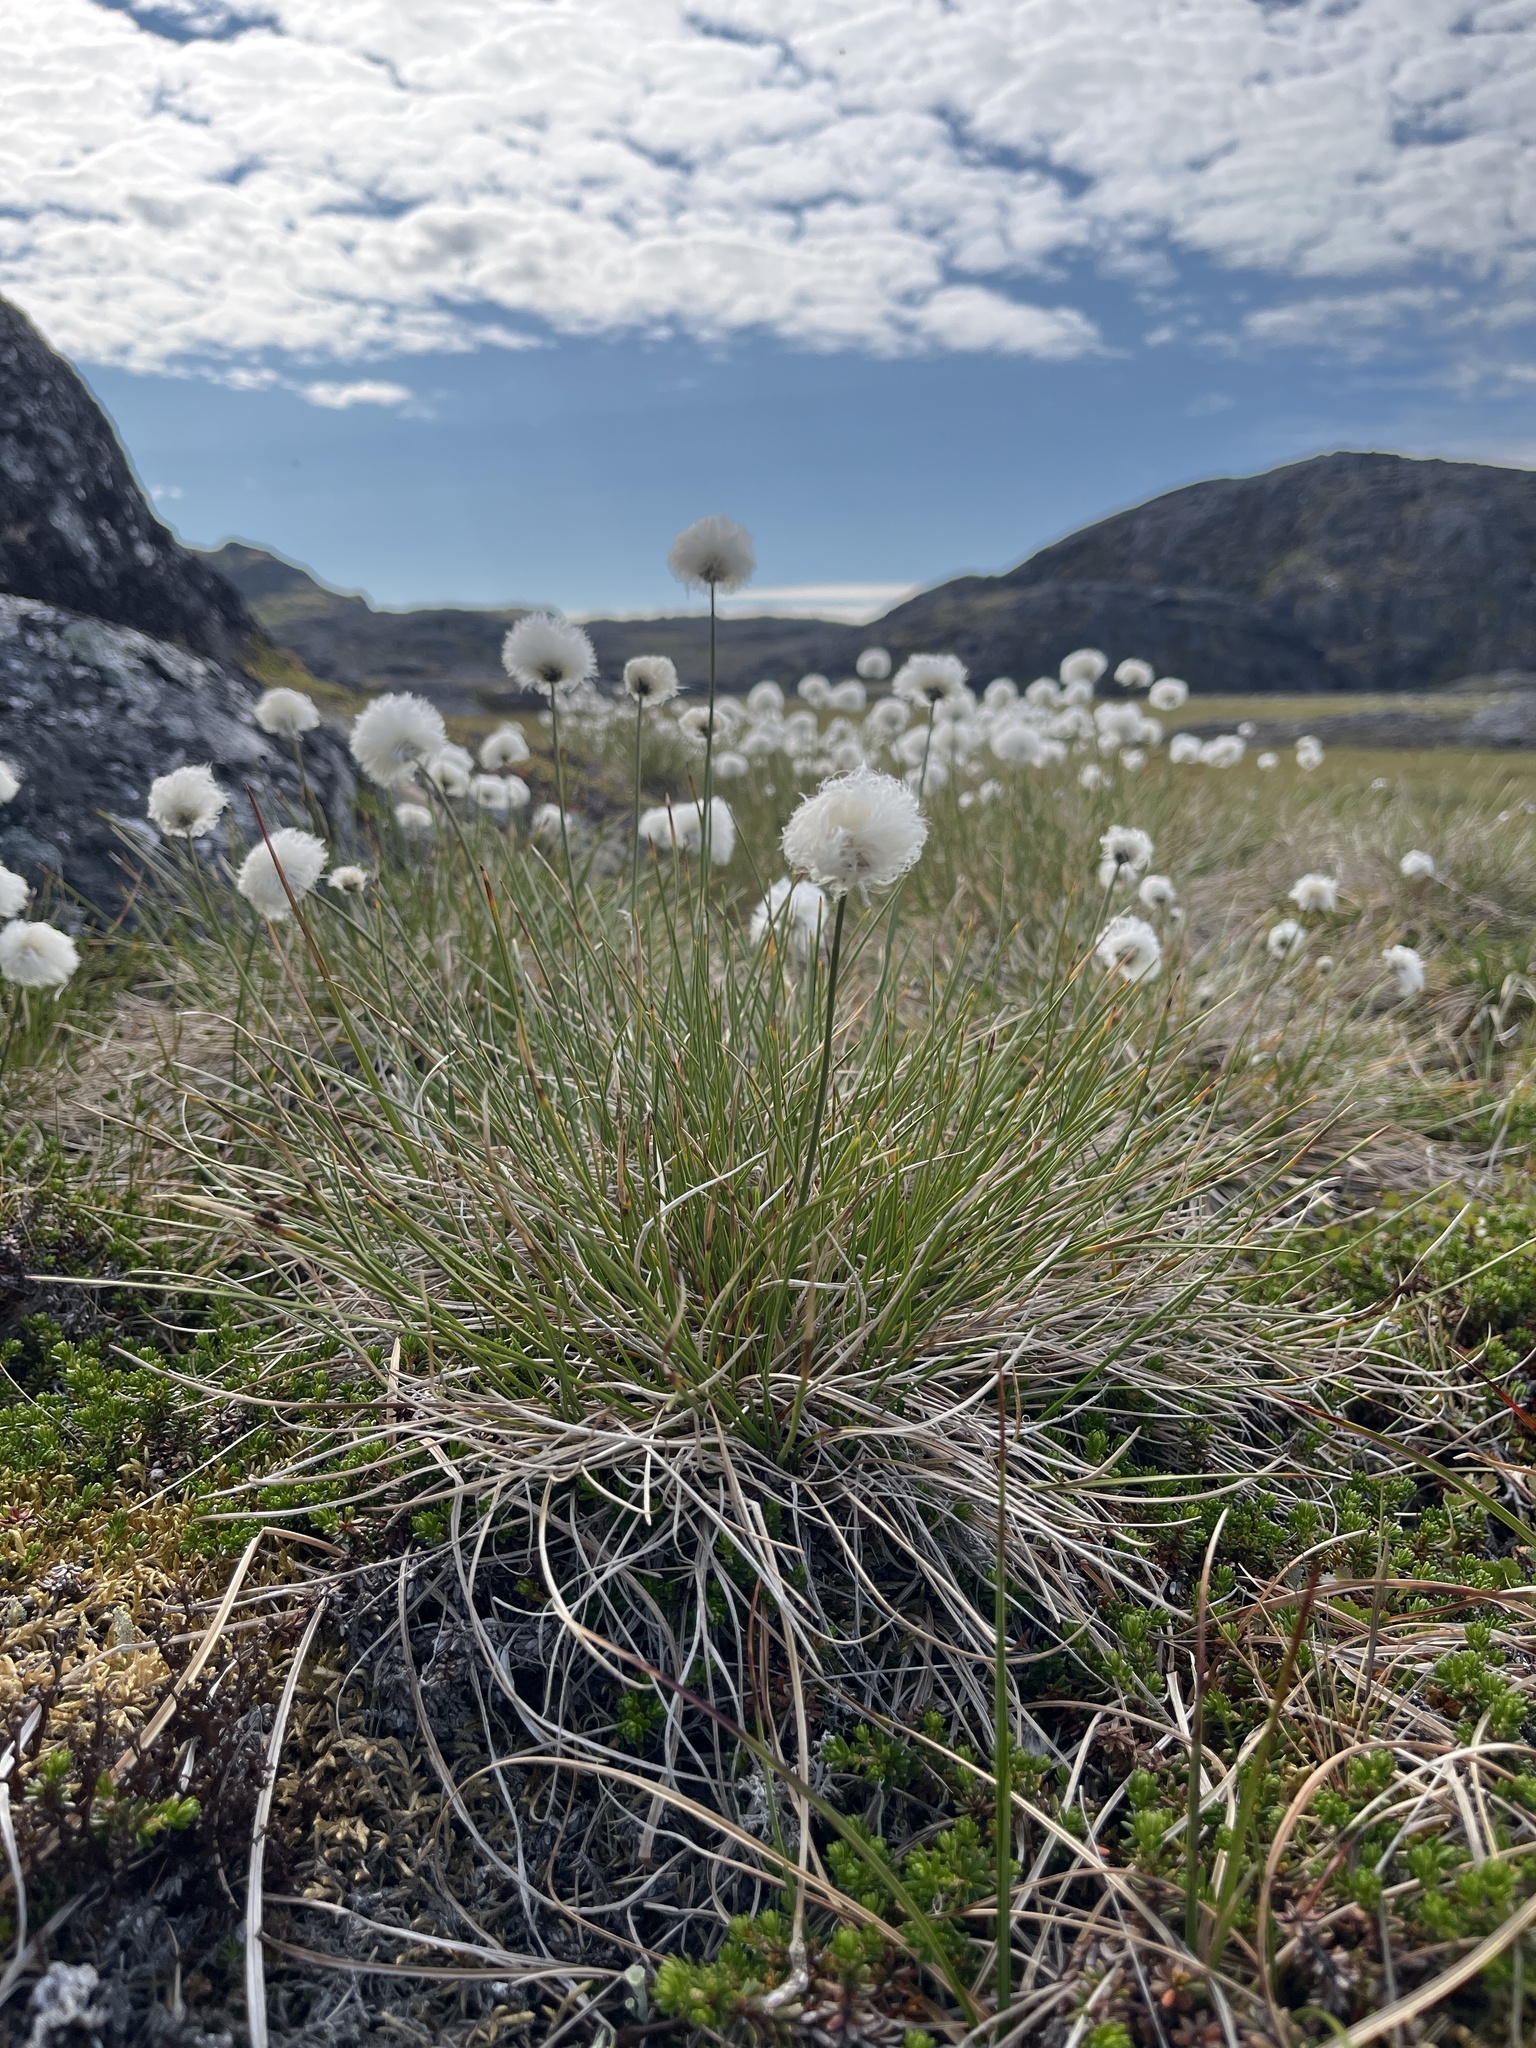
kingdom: Plantae
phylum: Tracheophyta
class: Liliopsida
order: Poales
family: Cyperaceae
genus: Eriophorum
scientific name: Eriophorum vaginatum
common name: Hare's-tail cottongrass
